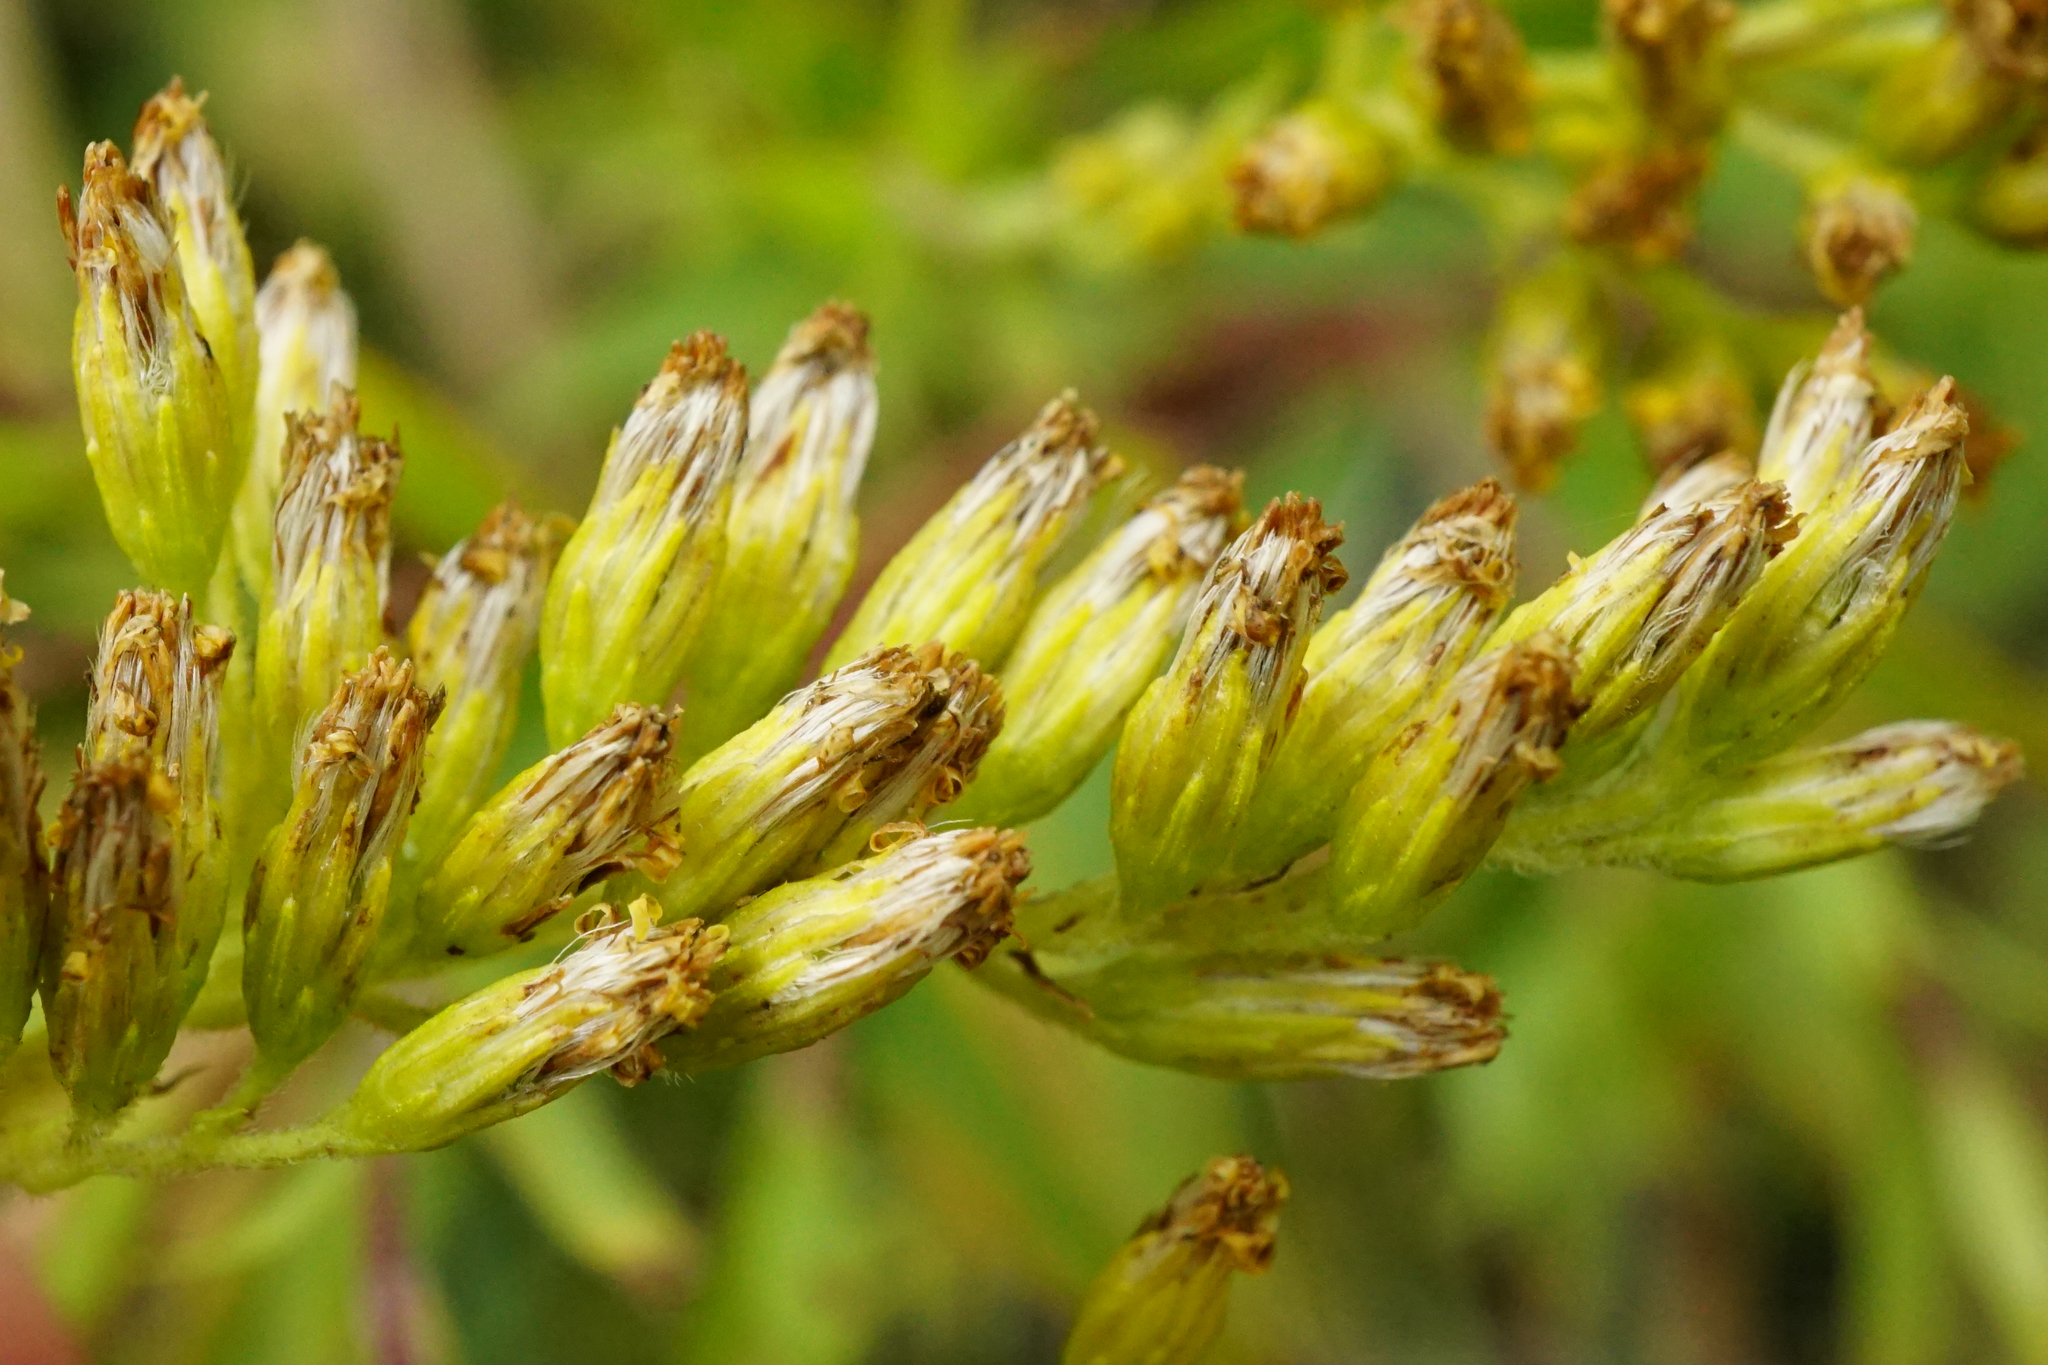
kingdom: Plantae
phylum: Tracheophyta
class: Magnoliopsida
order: Asterales
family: Asteraceae
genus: Solidago
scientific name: Solidago gigantea
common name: Giant goldenrod
